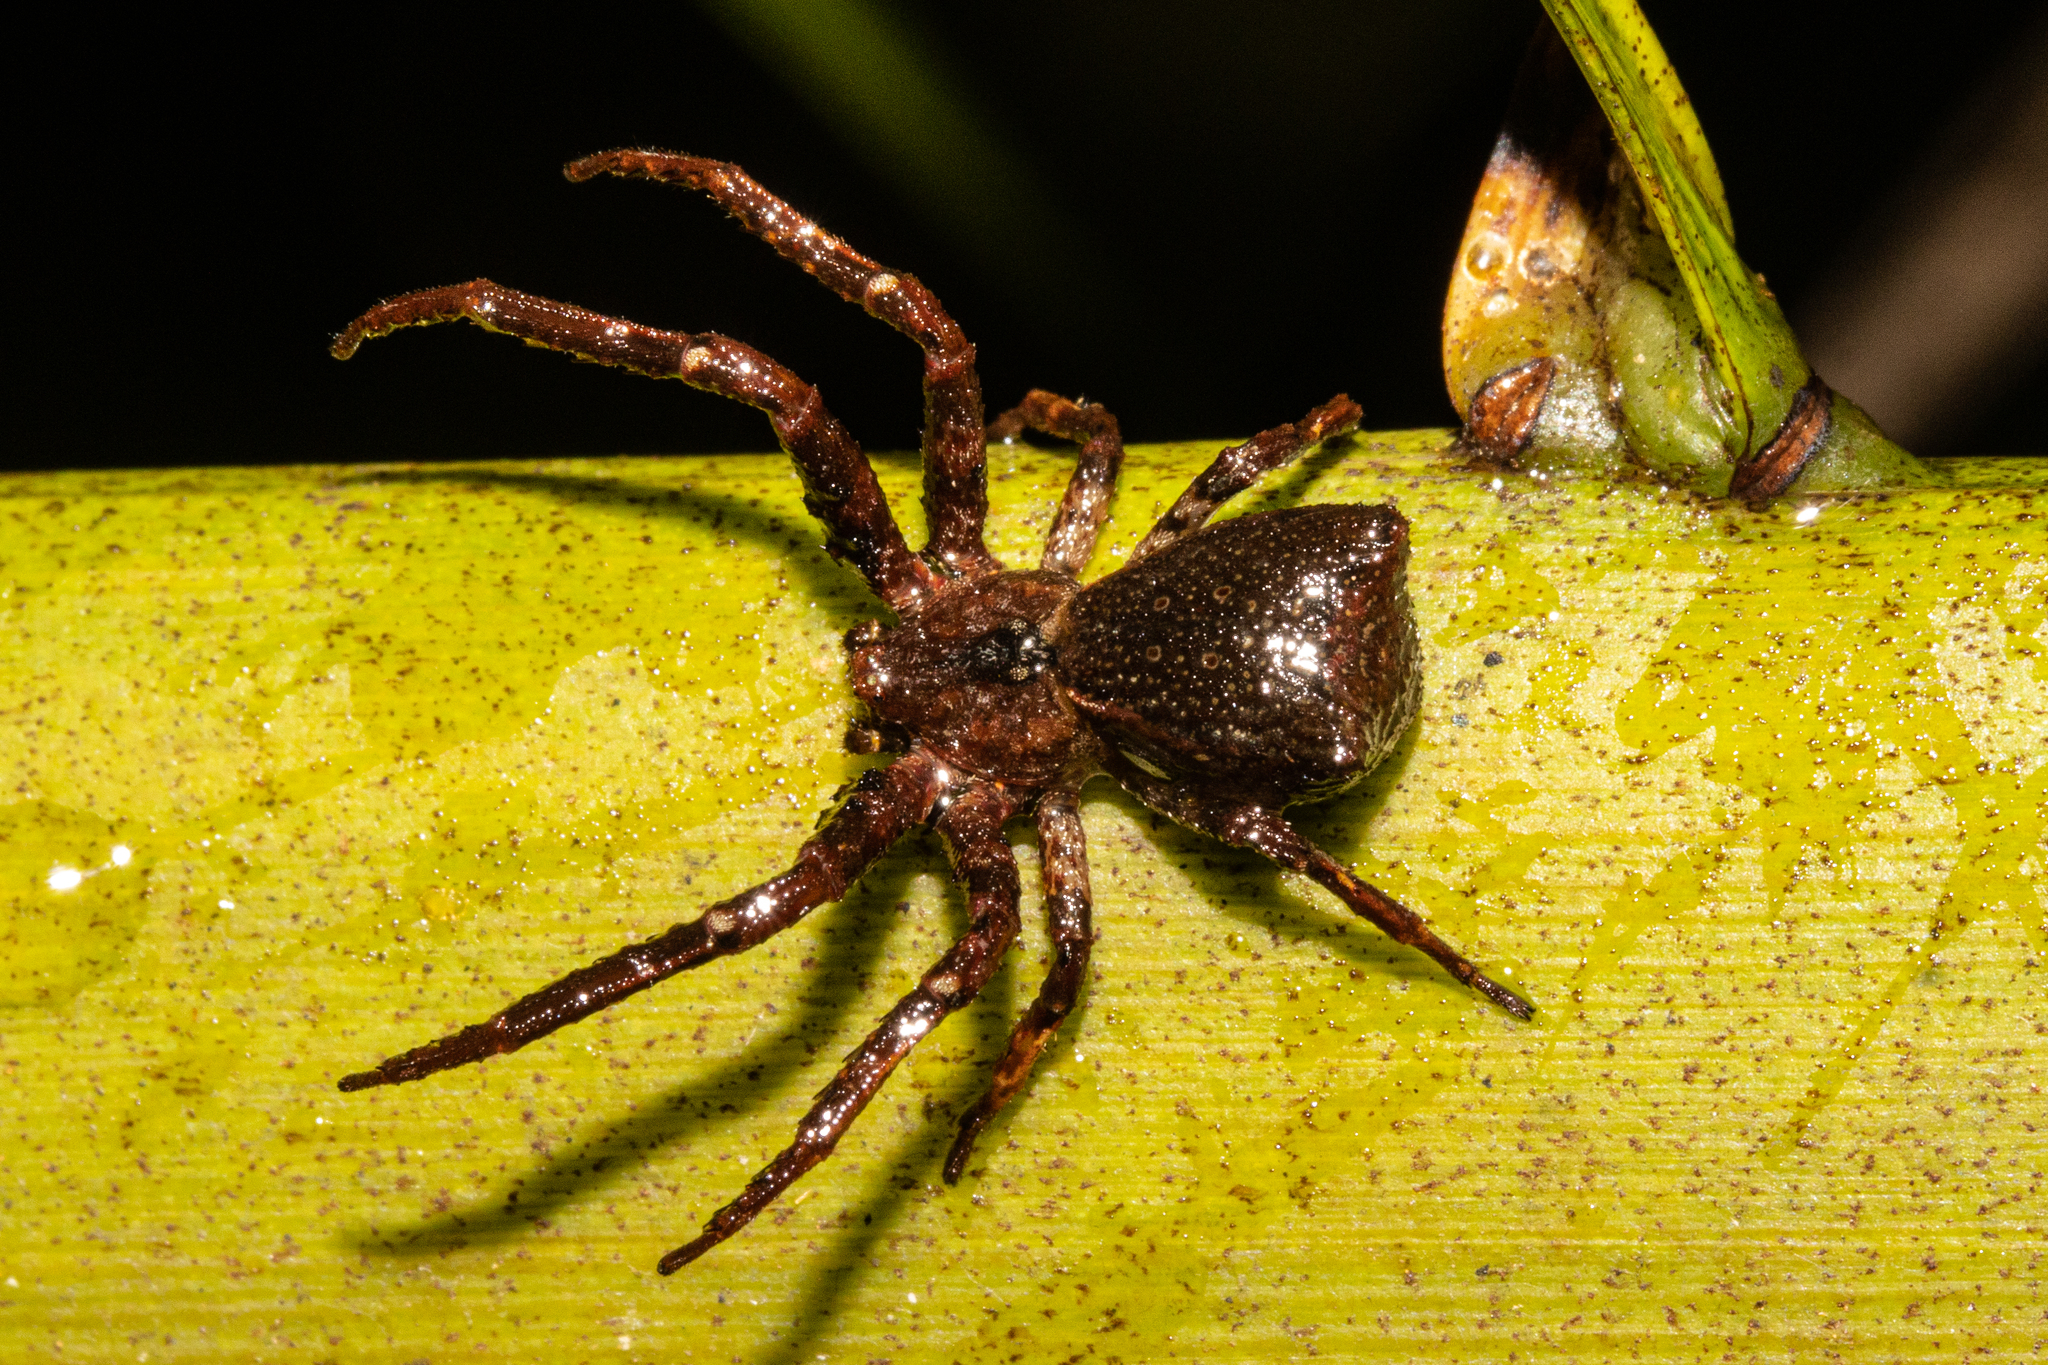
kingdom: Animalia
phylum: Arthropoda
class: Arachnida
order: Araneae
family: Thomisidae
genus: Sidymella
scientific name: Sidymella angularis
